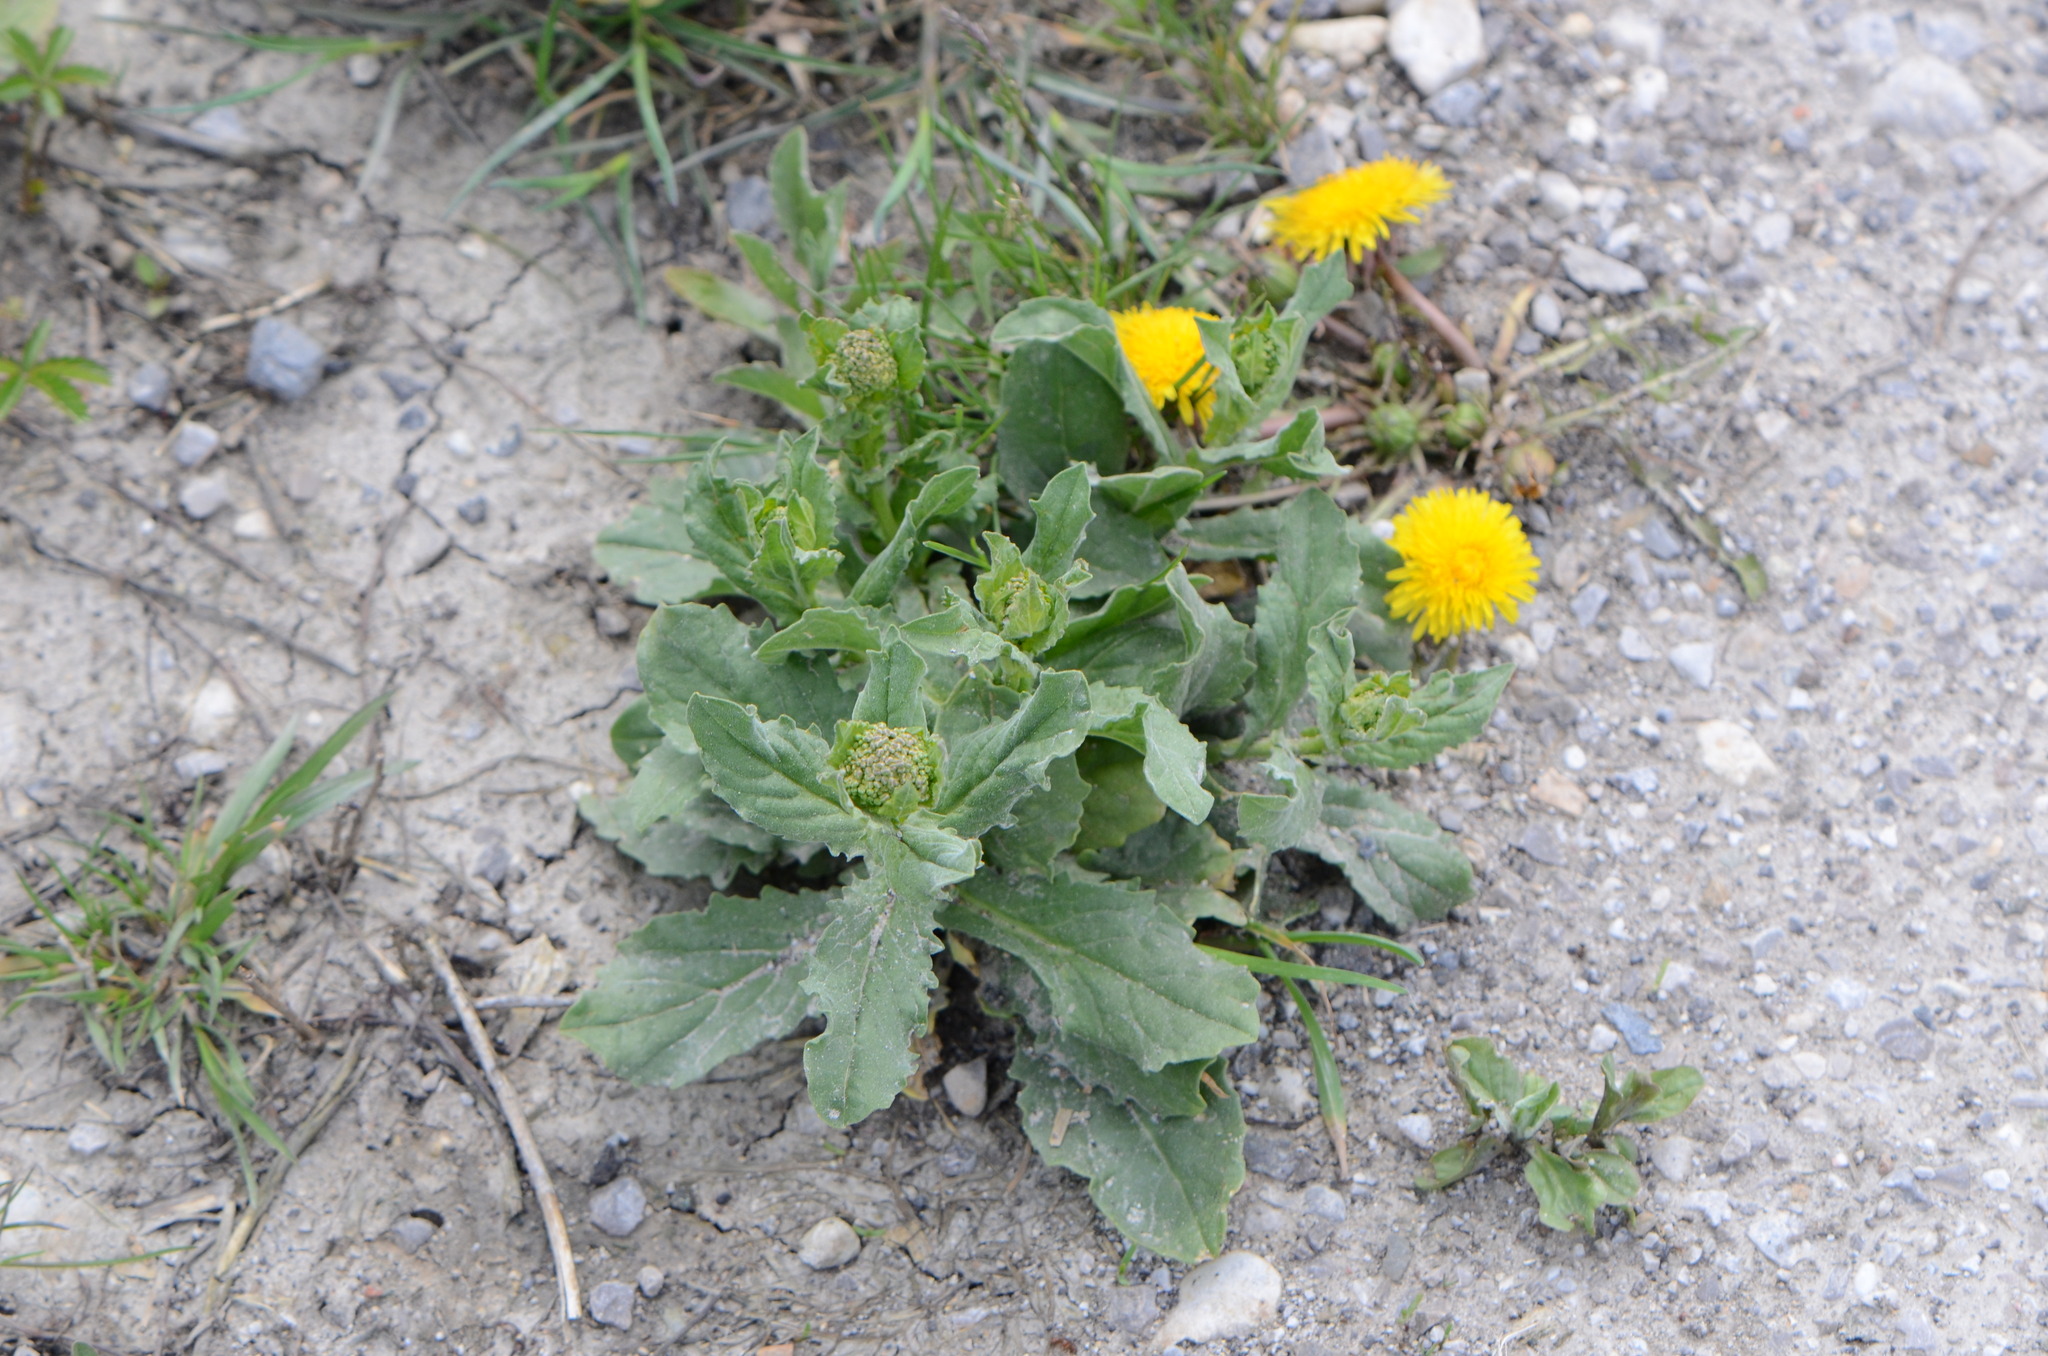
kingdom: Plantae
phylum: Tracheophyta
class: Magnoliopsida
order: Asterales
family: Asteraceae
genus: Taraxacum
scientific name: Taraxacum
